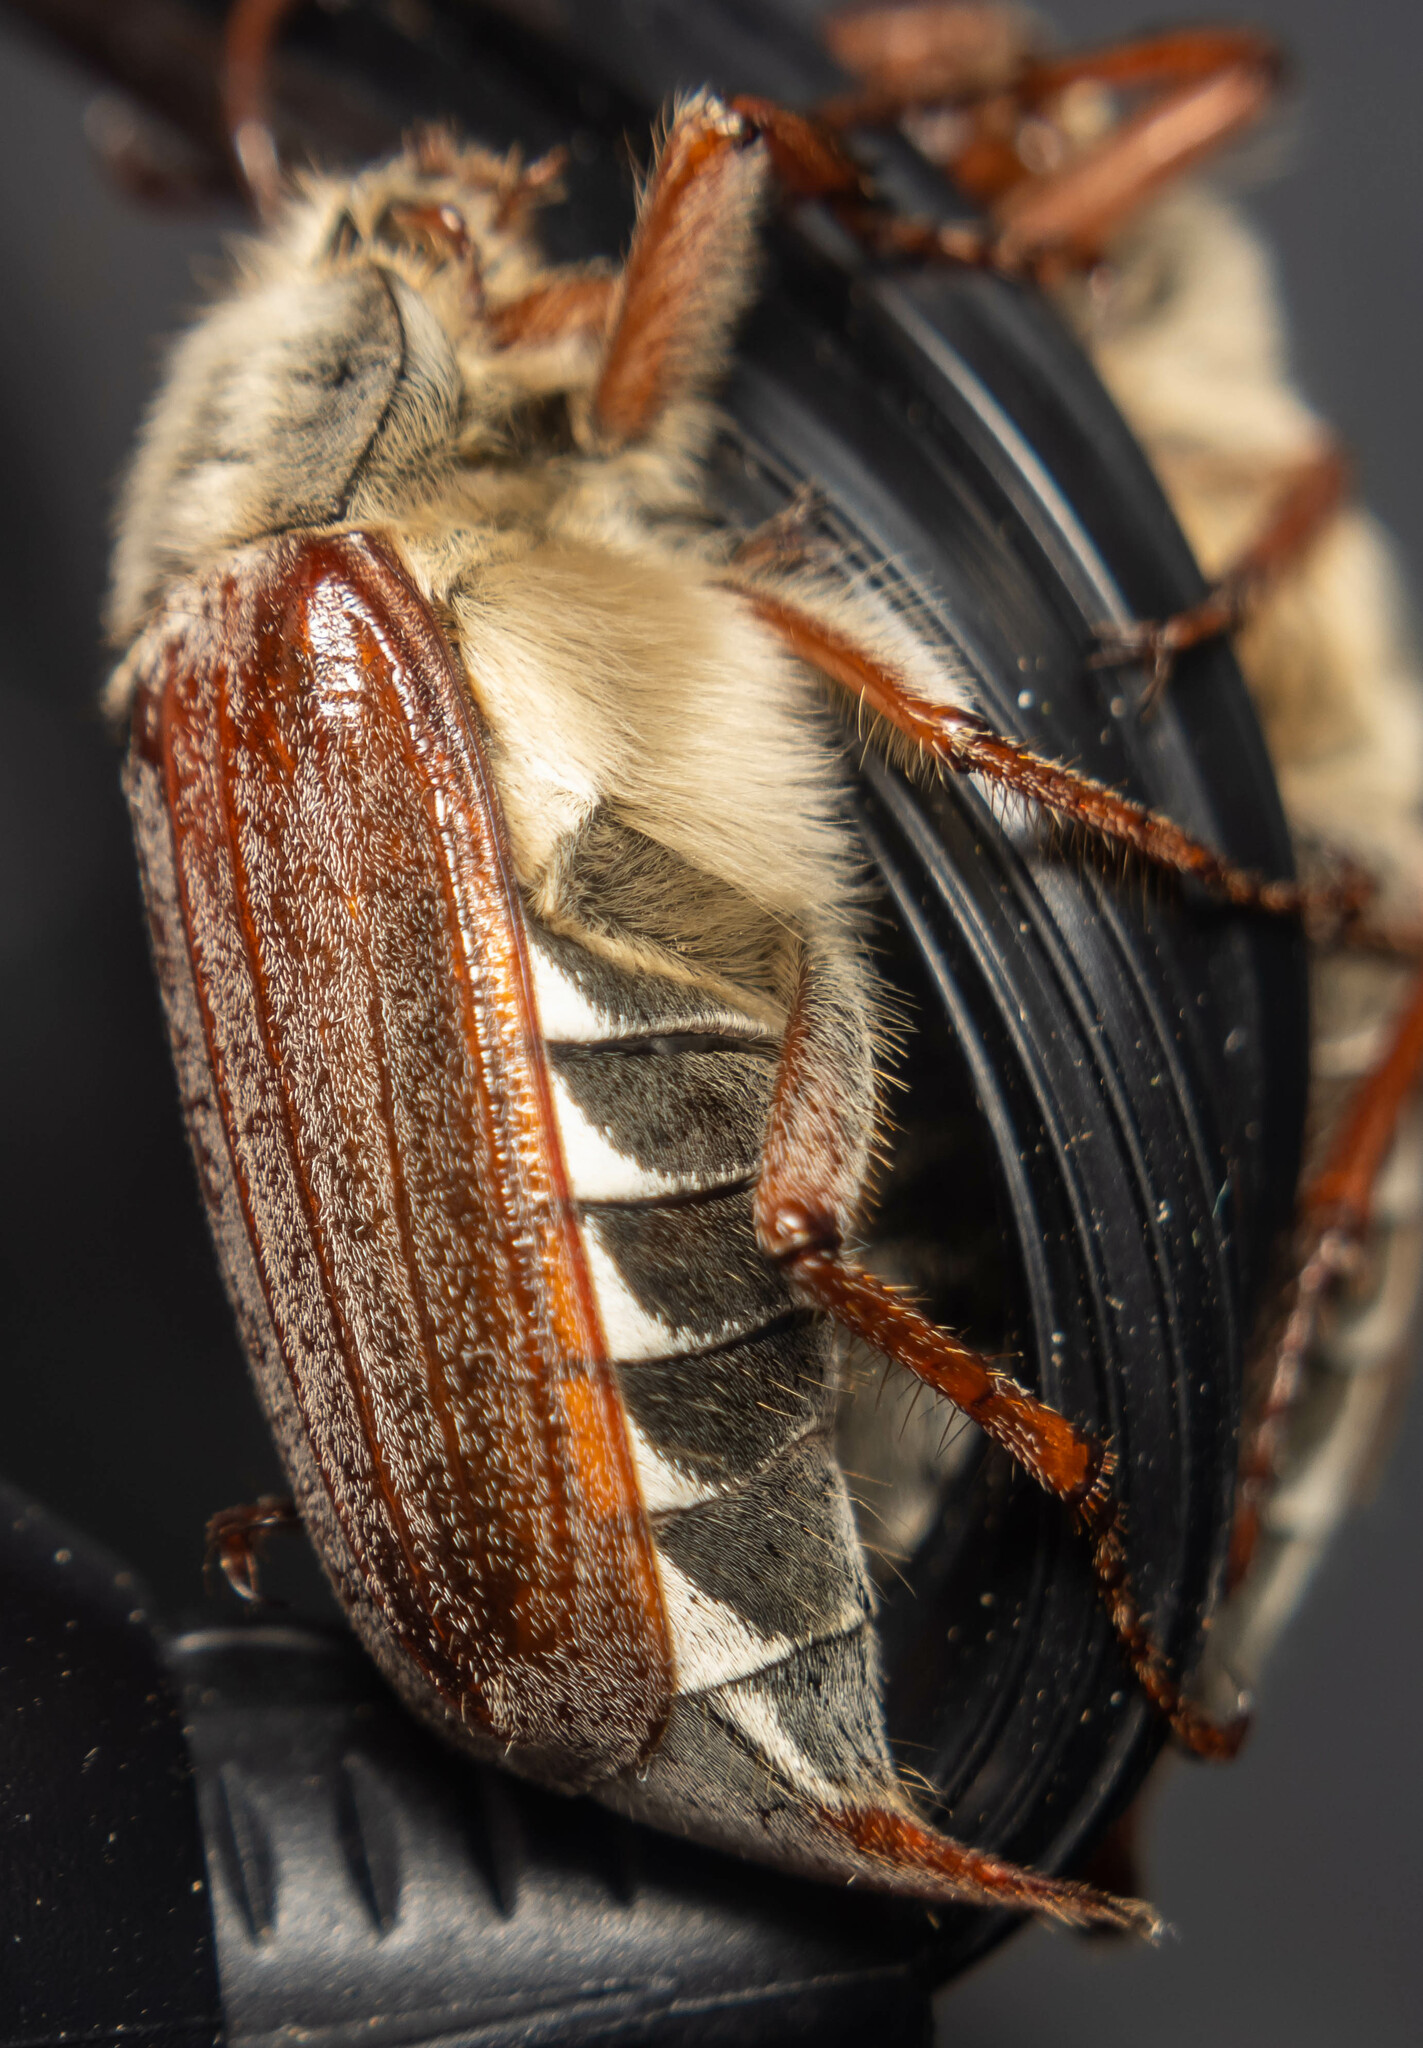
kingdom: Animalia
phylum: Arthropoda
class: Insecta
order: Coleoptera
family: Scarabaeidae
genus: Melolontha
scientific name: Melolontha melolontha
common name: Cockchafer maybeetle
